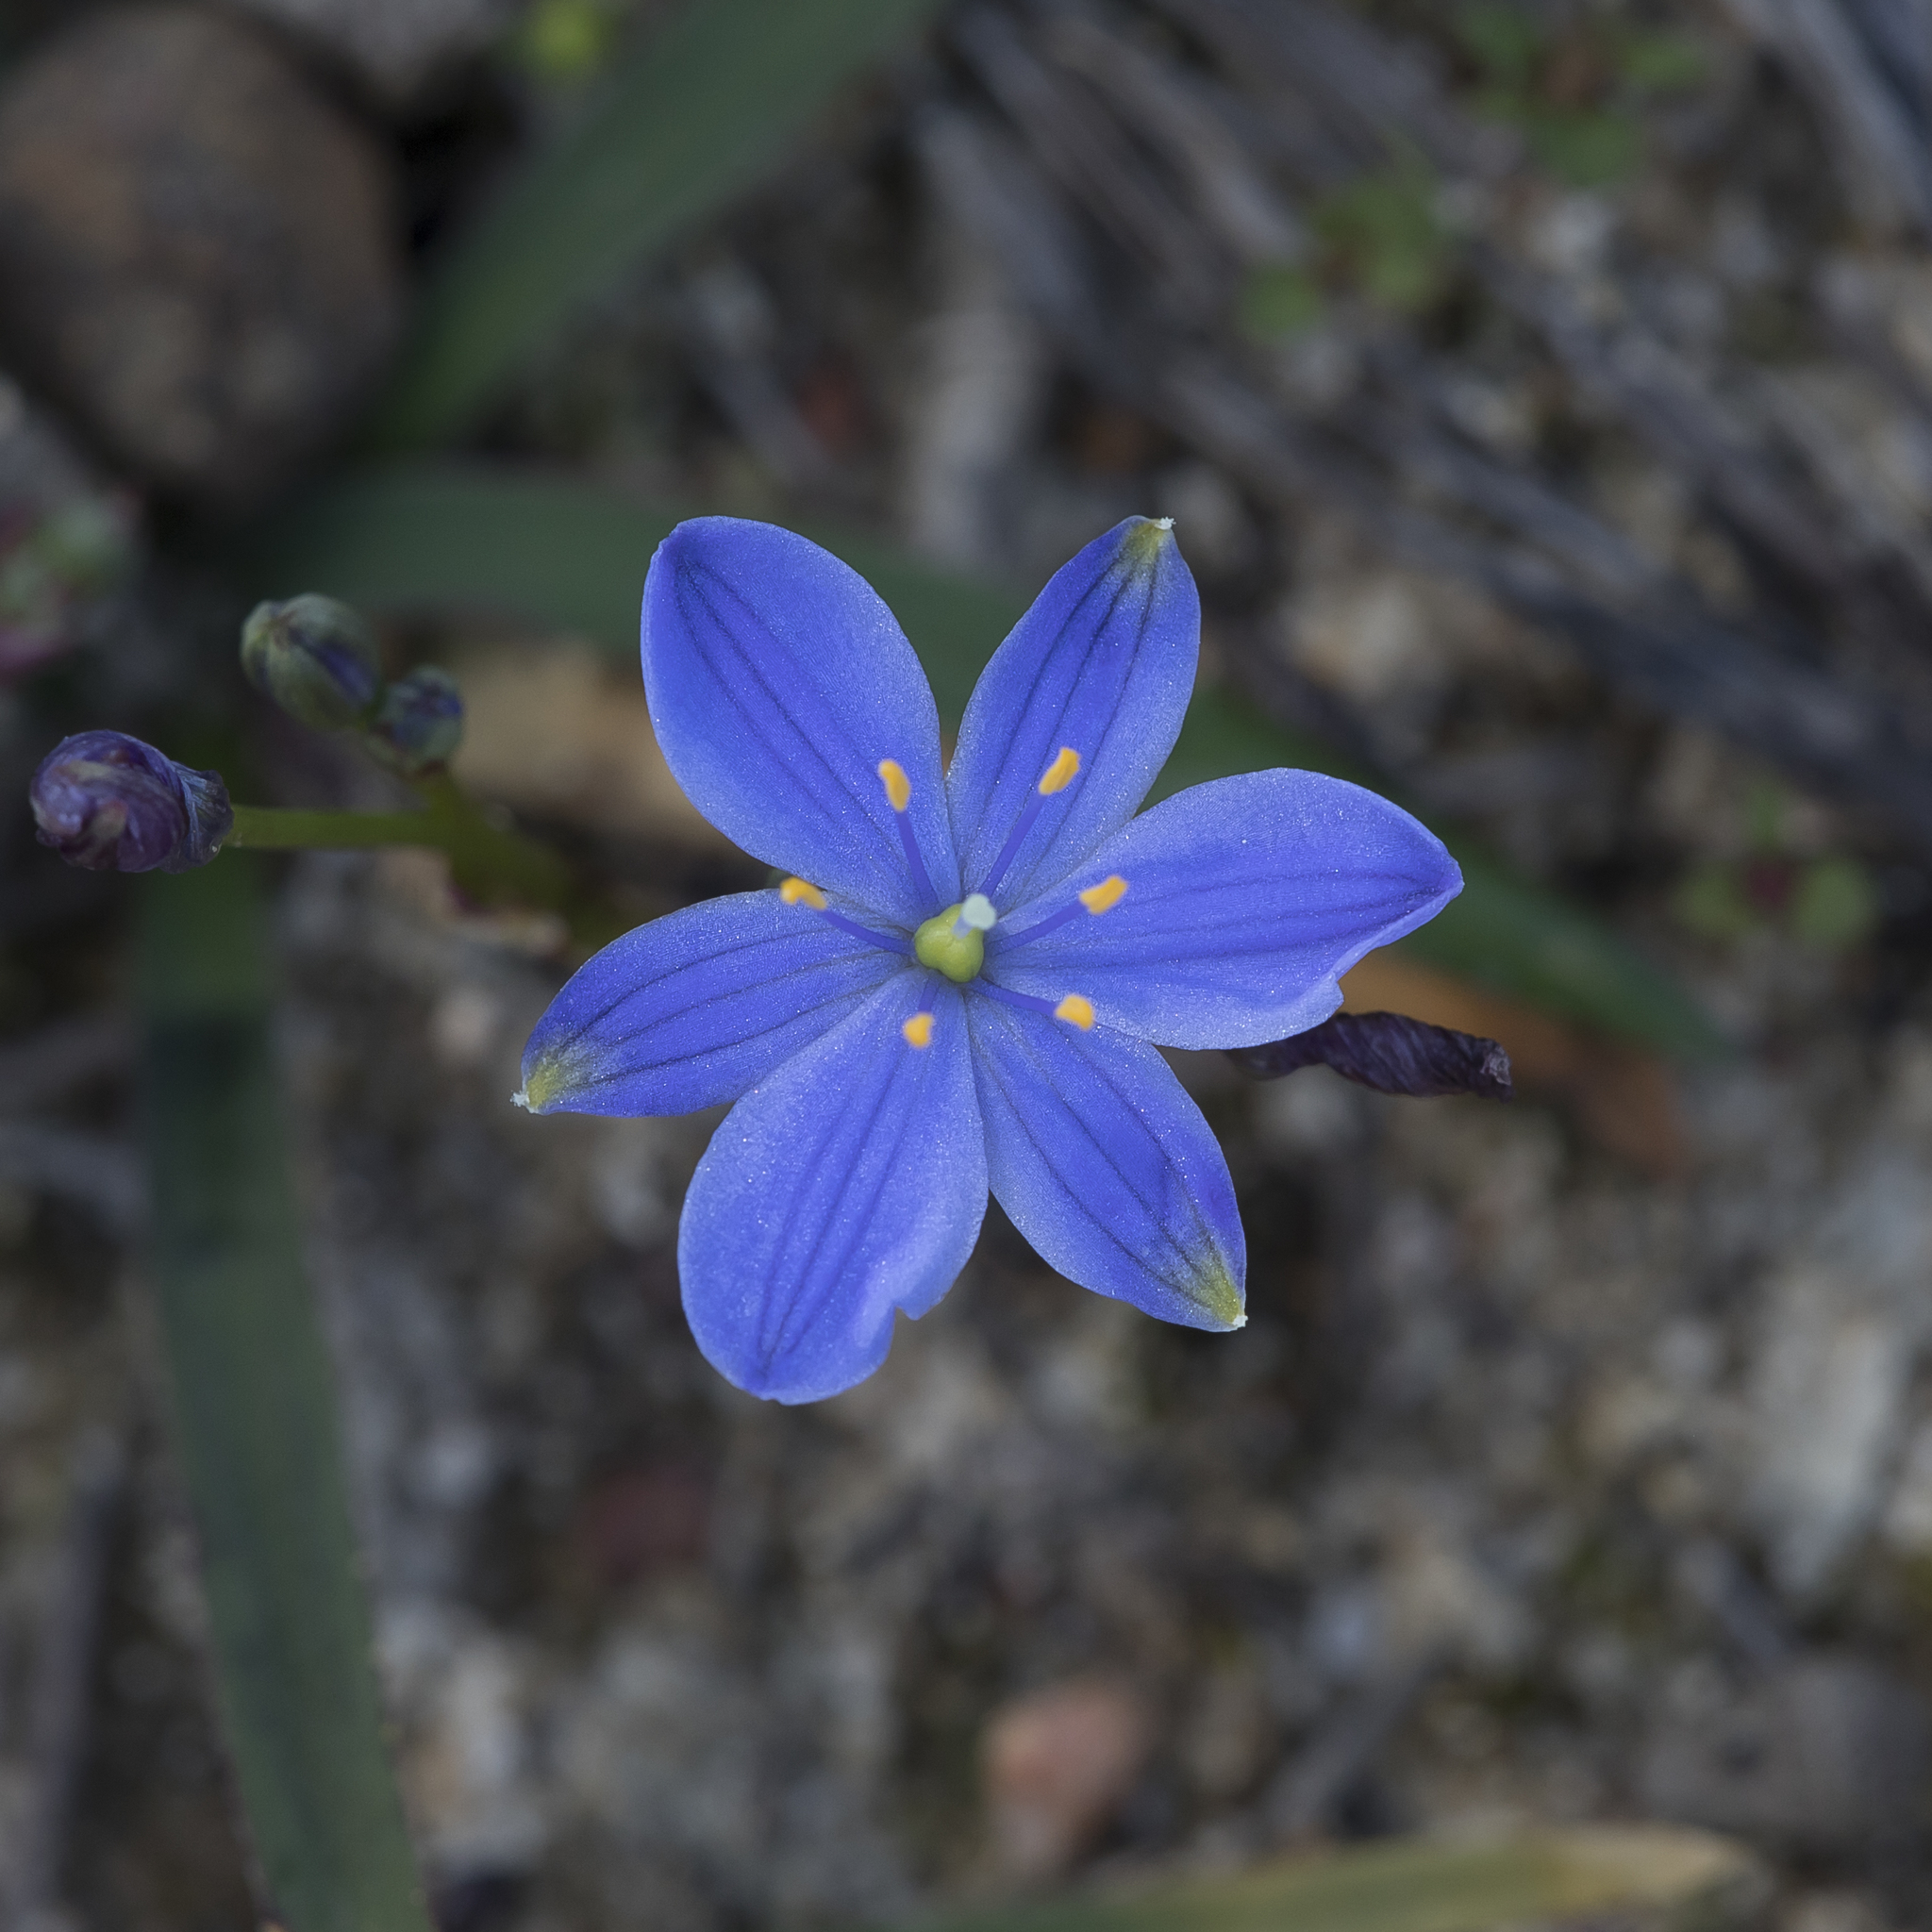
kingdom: Plantae
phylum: Tracheophyta
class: Liliopsida
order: Asparagales
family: Asphodelaceae
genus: Chamaescilla
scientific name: Chamaescilla corymbosa
